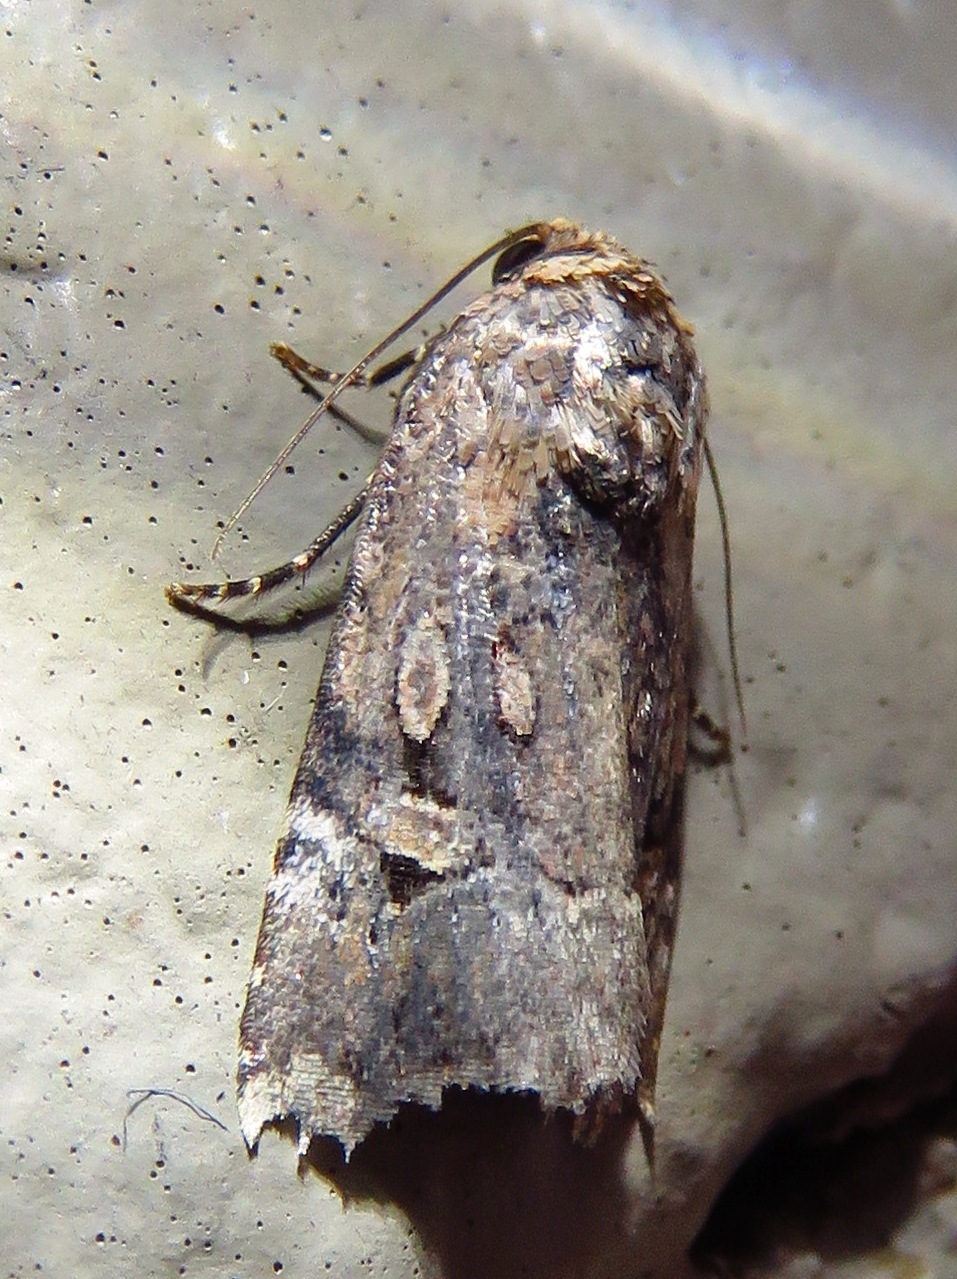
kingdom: Animalia
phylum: Arthropoda
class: Insecta
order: Lepidoptera
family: Noctuidae
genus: Elaphria
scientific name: Elaphria chalcedonia
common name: Chalcedony midget
